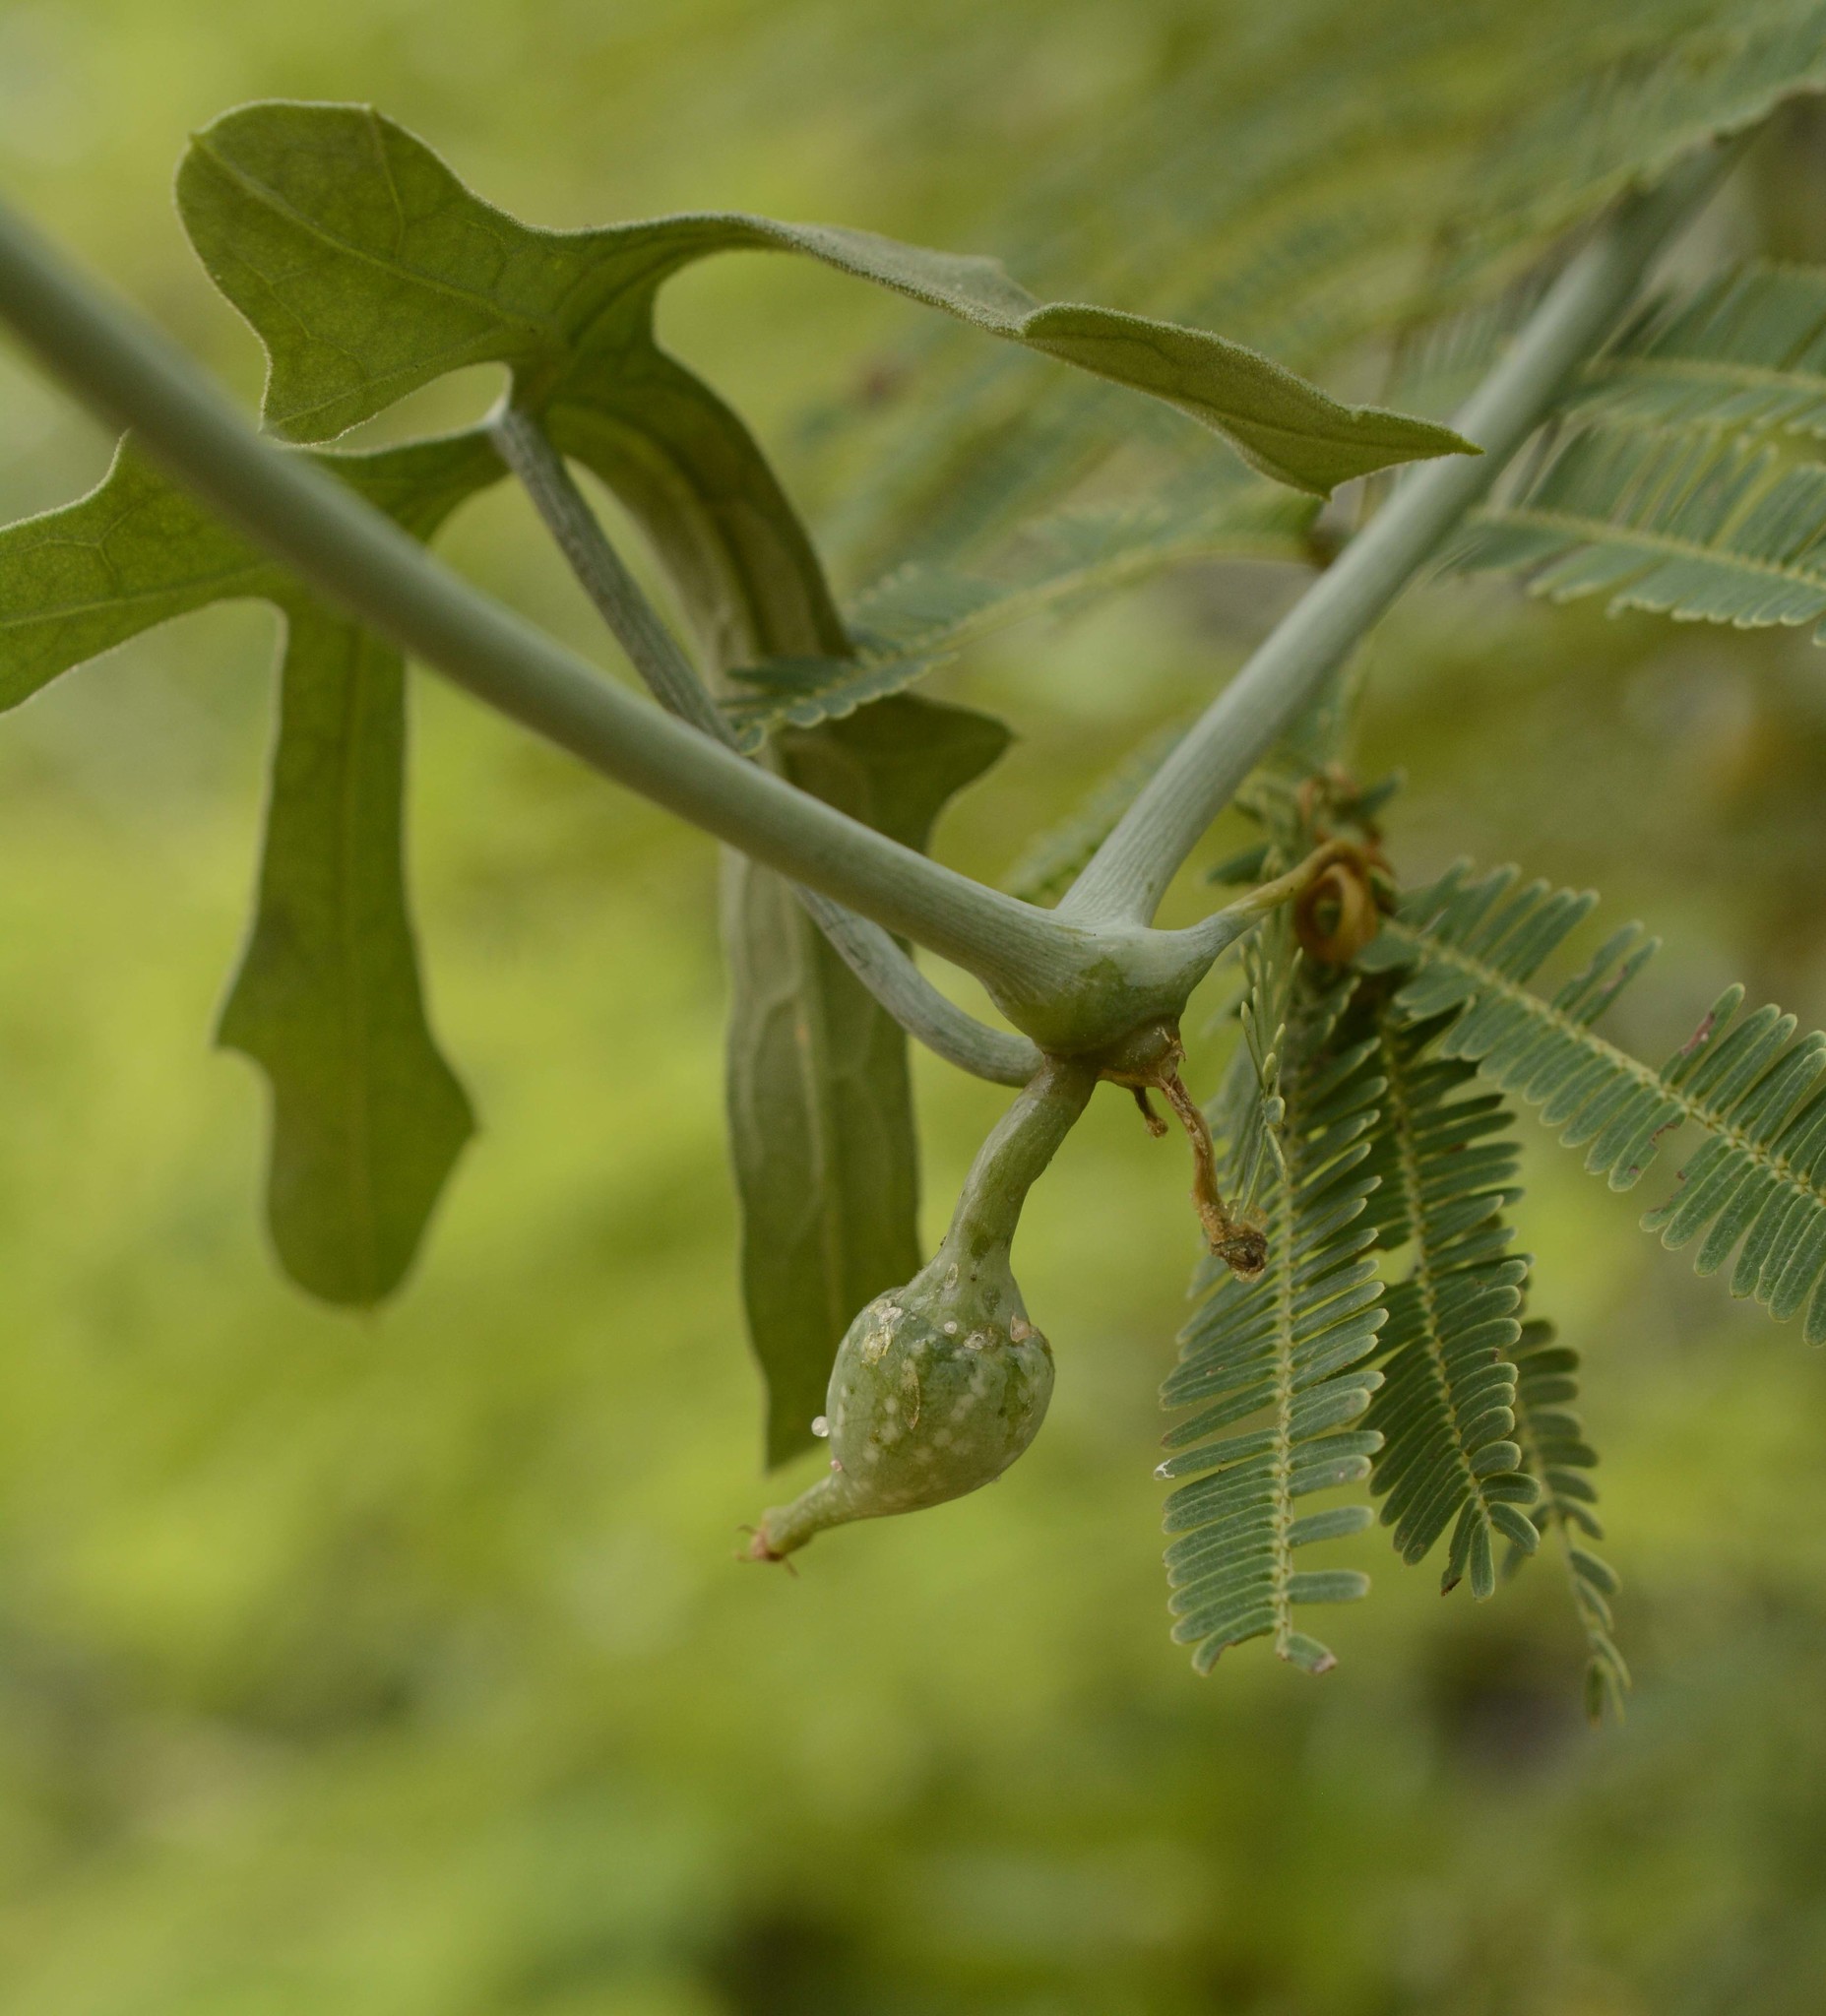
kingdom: Plantae
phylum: Tracheophyta
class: Magnoliopsida
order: Cucurbitales
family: Cucurbitaceae
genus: Corallocarpus
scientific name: Corallocarpus epigaeus
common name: Indian bryonia
